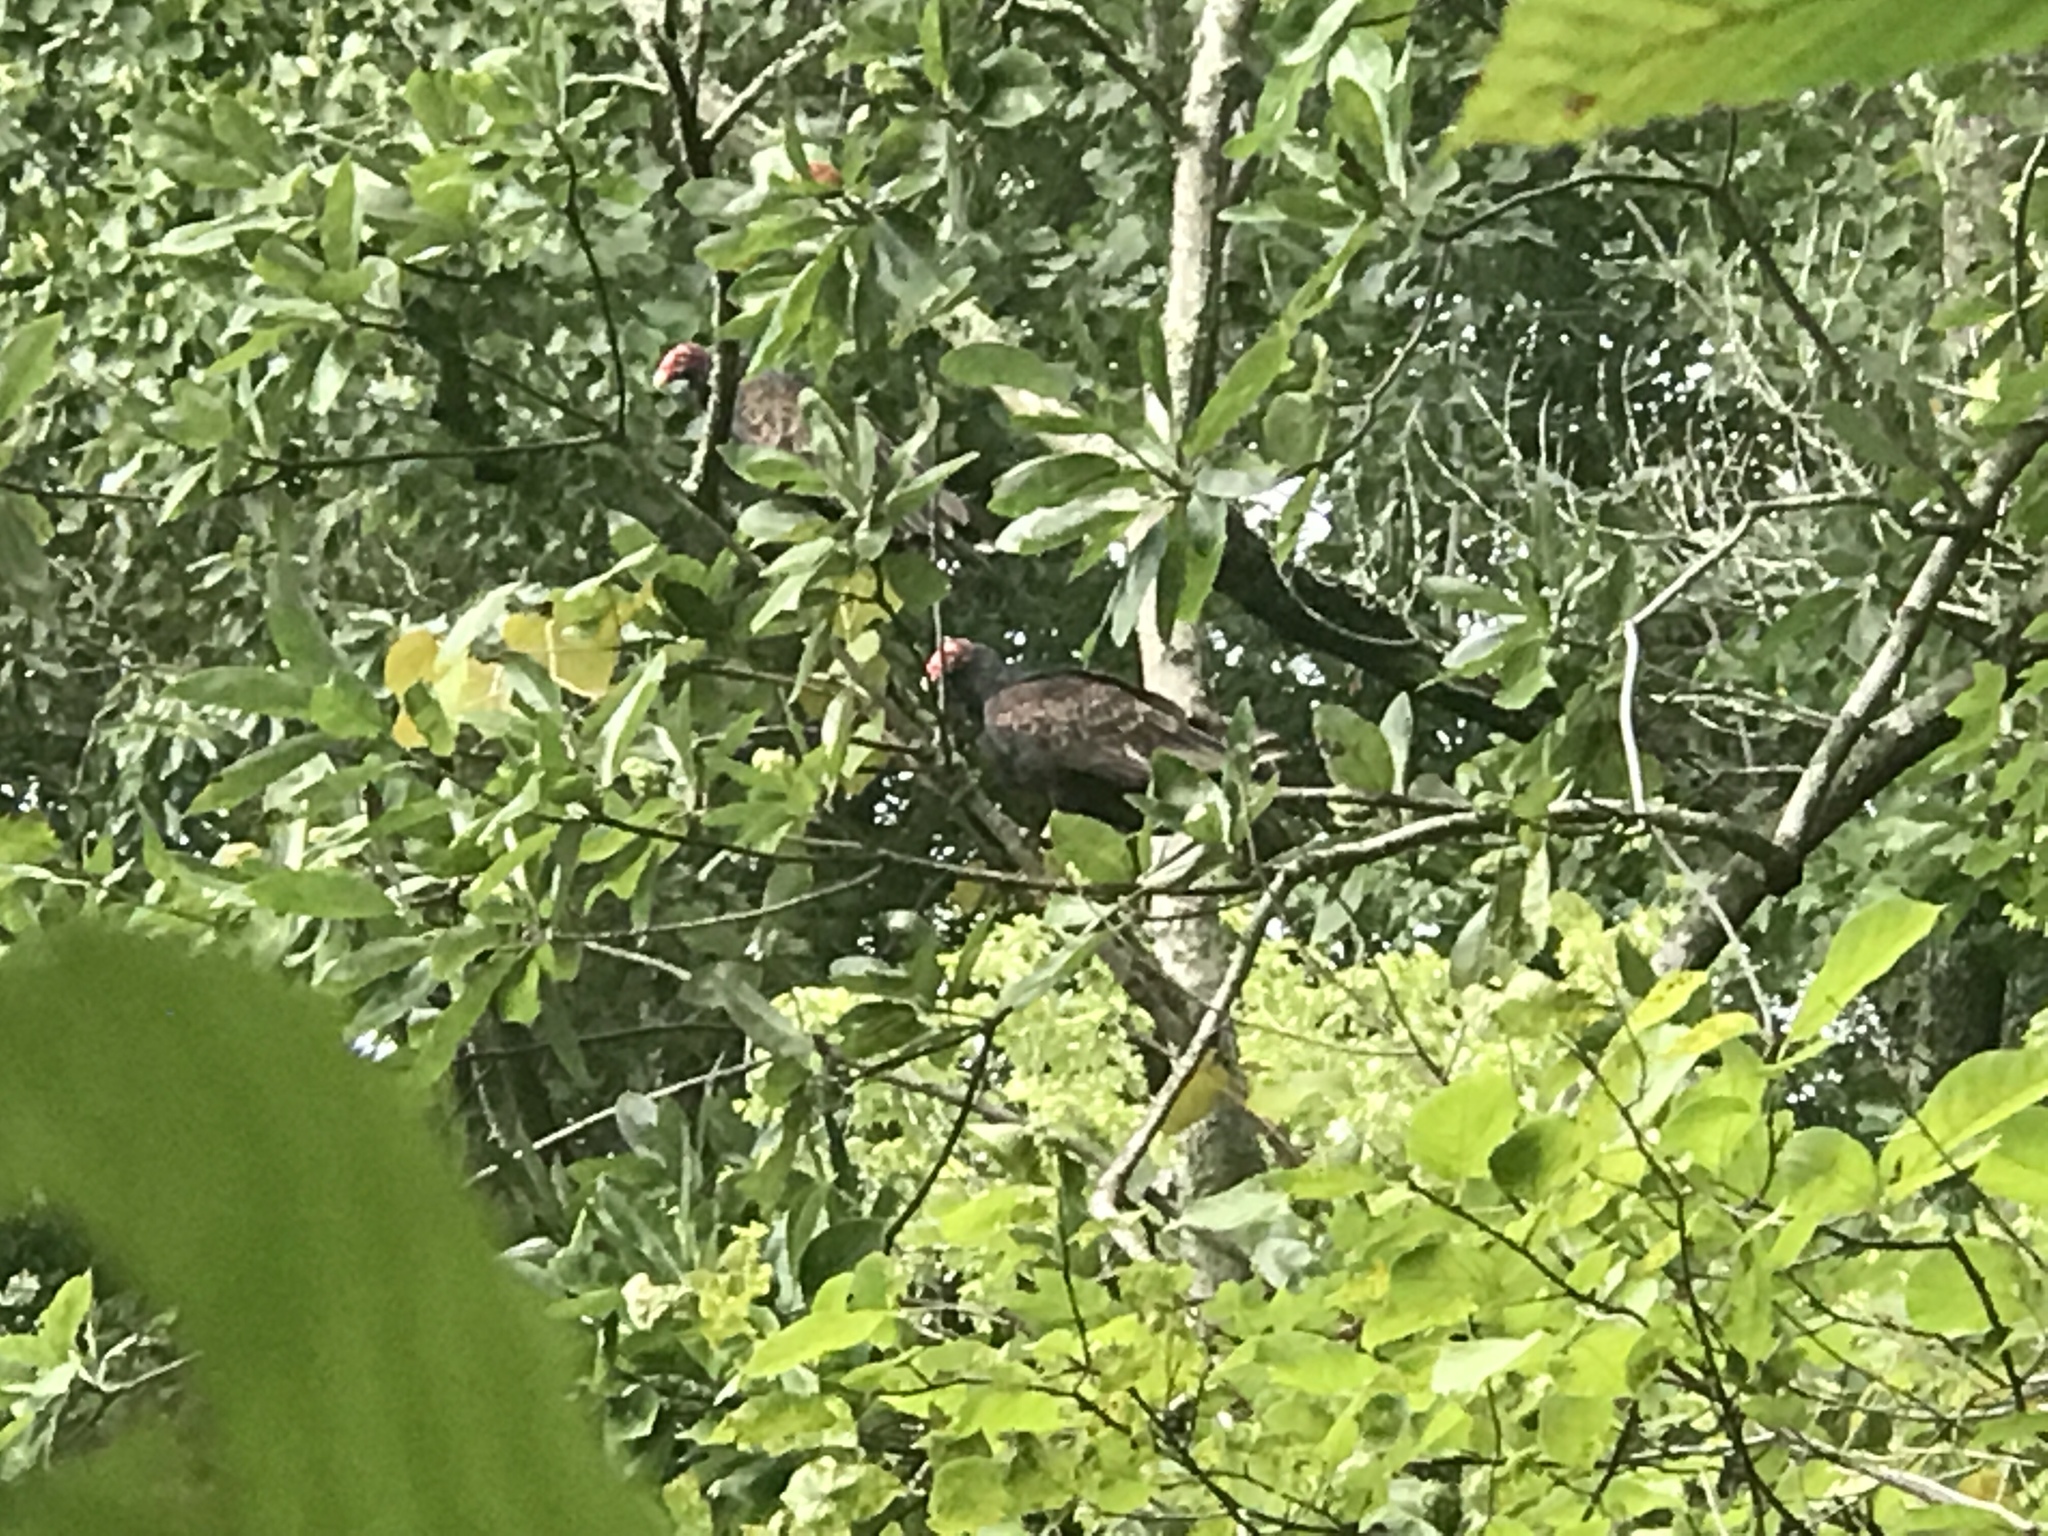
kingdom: Animalia
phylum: Chordata
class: Aves
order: Accipitriformes
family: Cathartidae
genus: Cathartes
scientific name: Cathartes aura
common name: Turkey vulture
